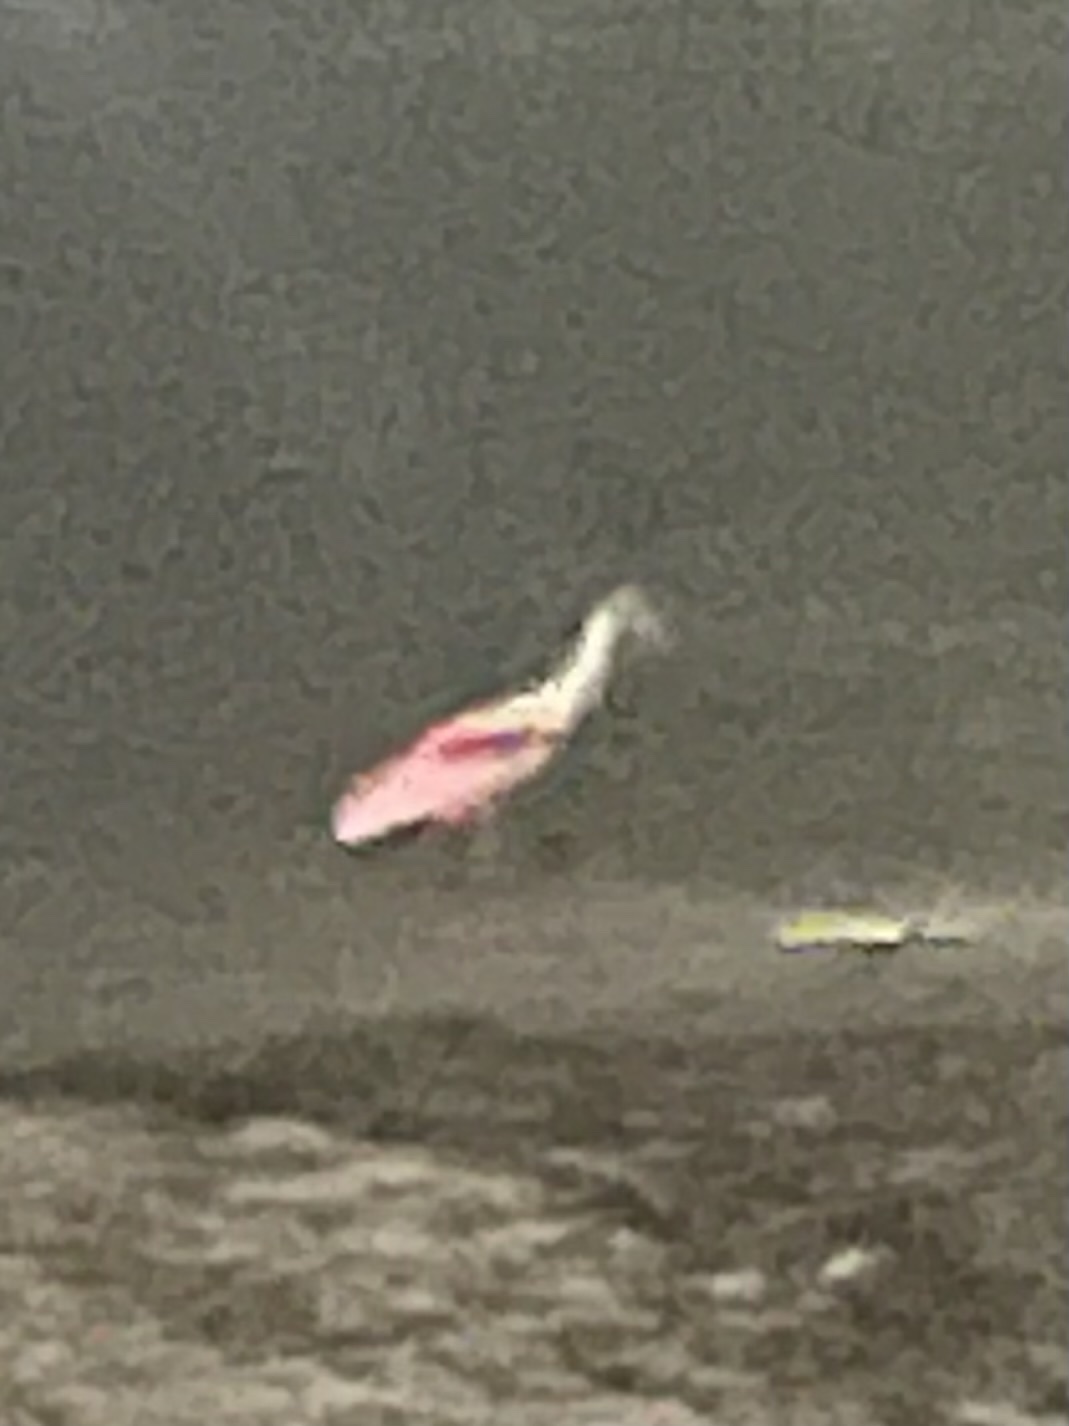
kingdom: Animalia
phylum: Chordata
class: Aves
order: Pelecaniformes
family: Threskiornithidae
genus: Platalea
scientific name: Platalea ajaja
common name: Roseate spoonbill
